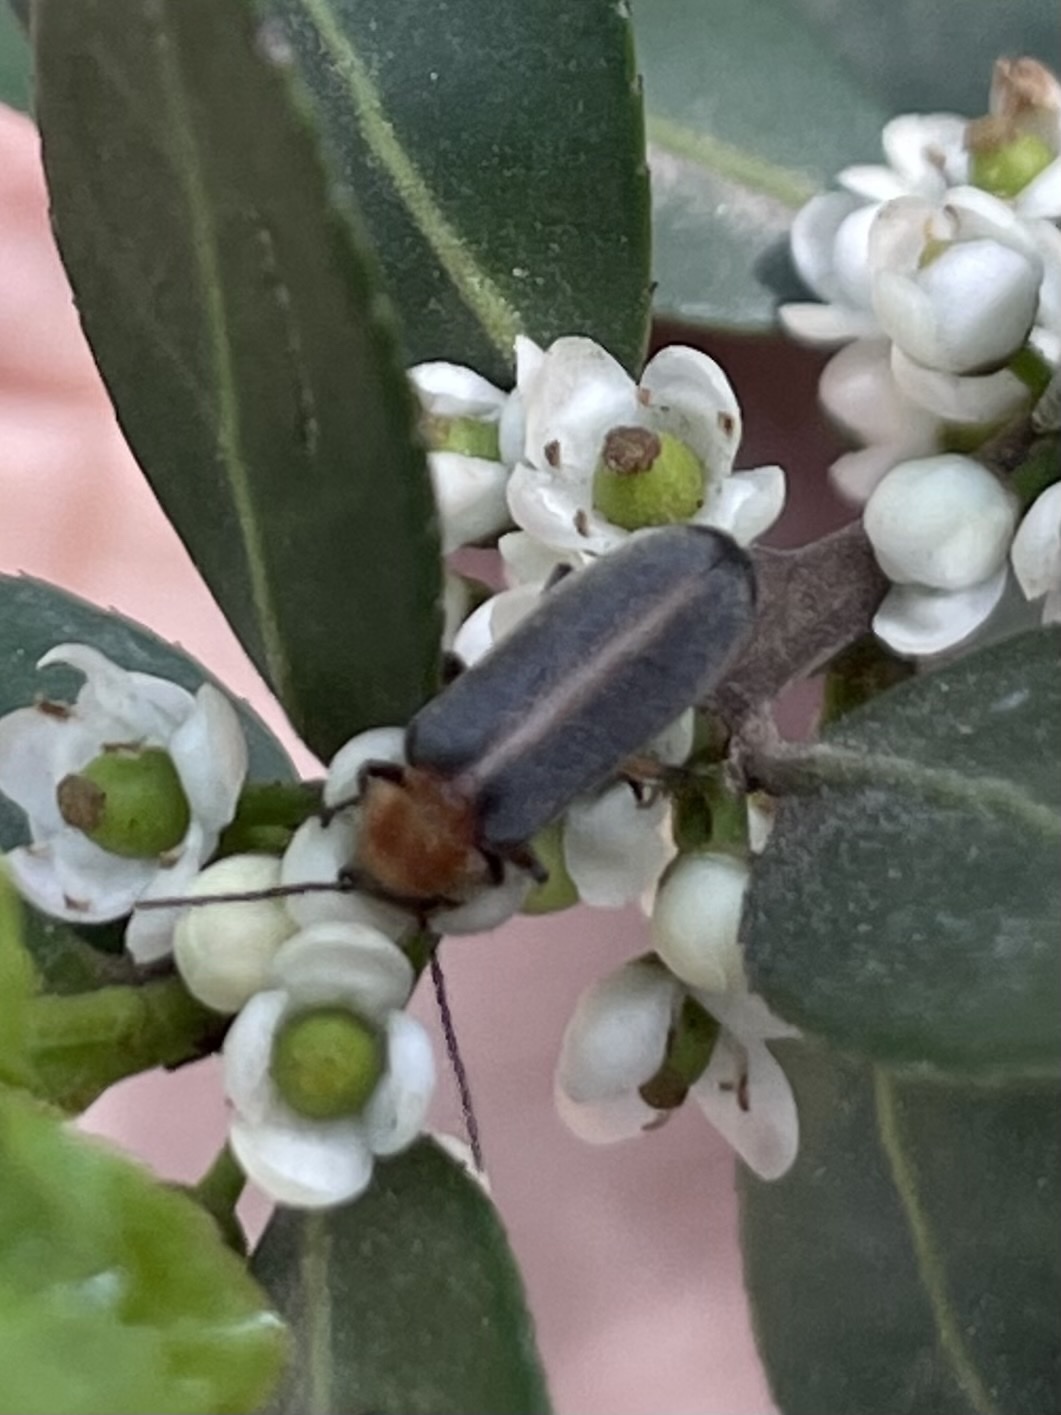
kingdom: Animalia
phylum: Arthropoda
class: Insecta
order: Coleoptera
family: Melandryidae
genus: Osphya
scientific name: Osphya varians
